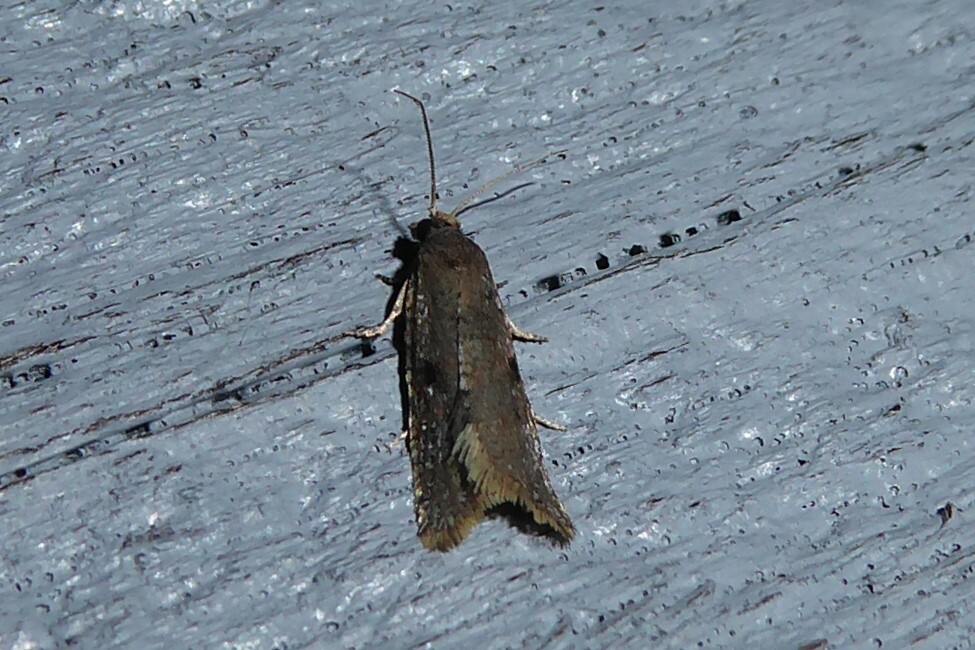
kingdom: Animalia
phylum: Arthropoda
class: Insecta
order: Lepidoptera
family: Tortricidae
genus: Capua
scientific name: Capua semiferana
